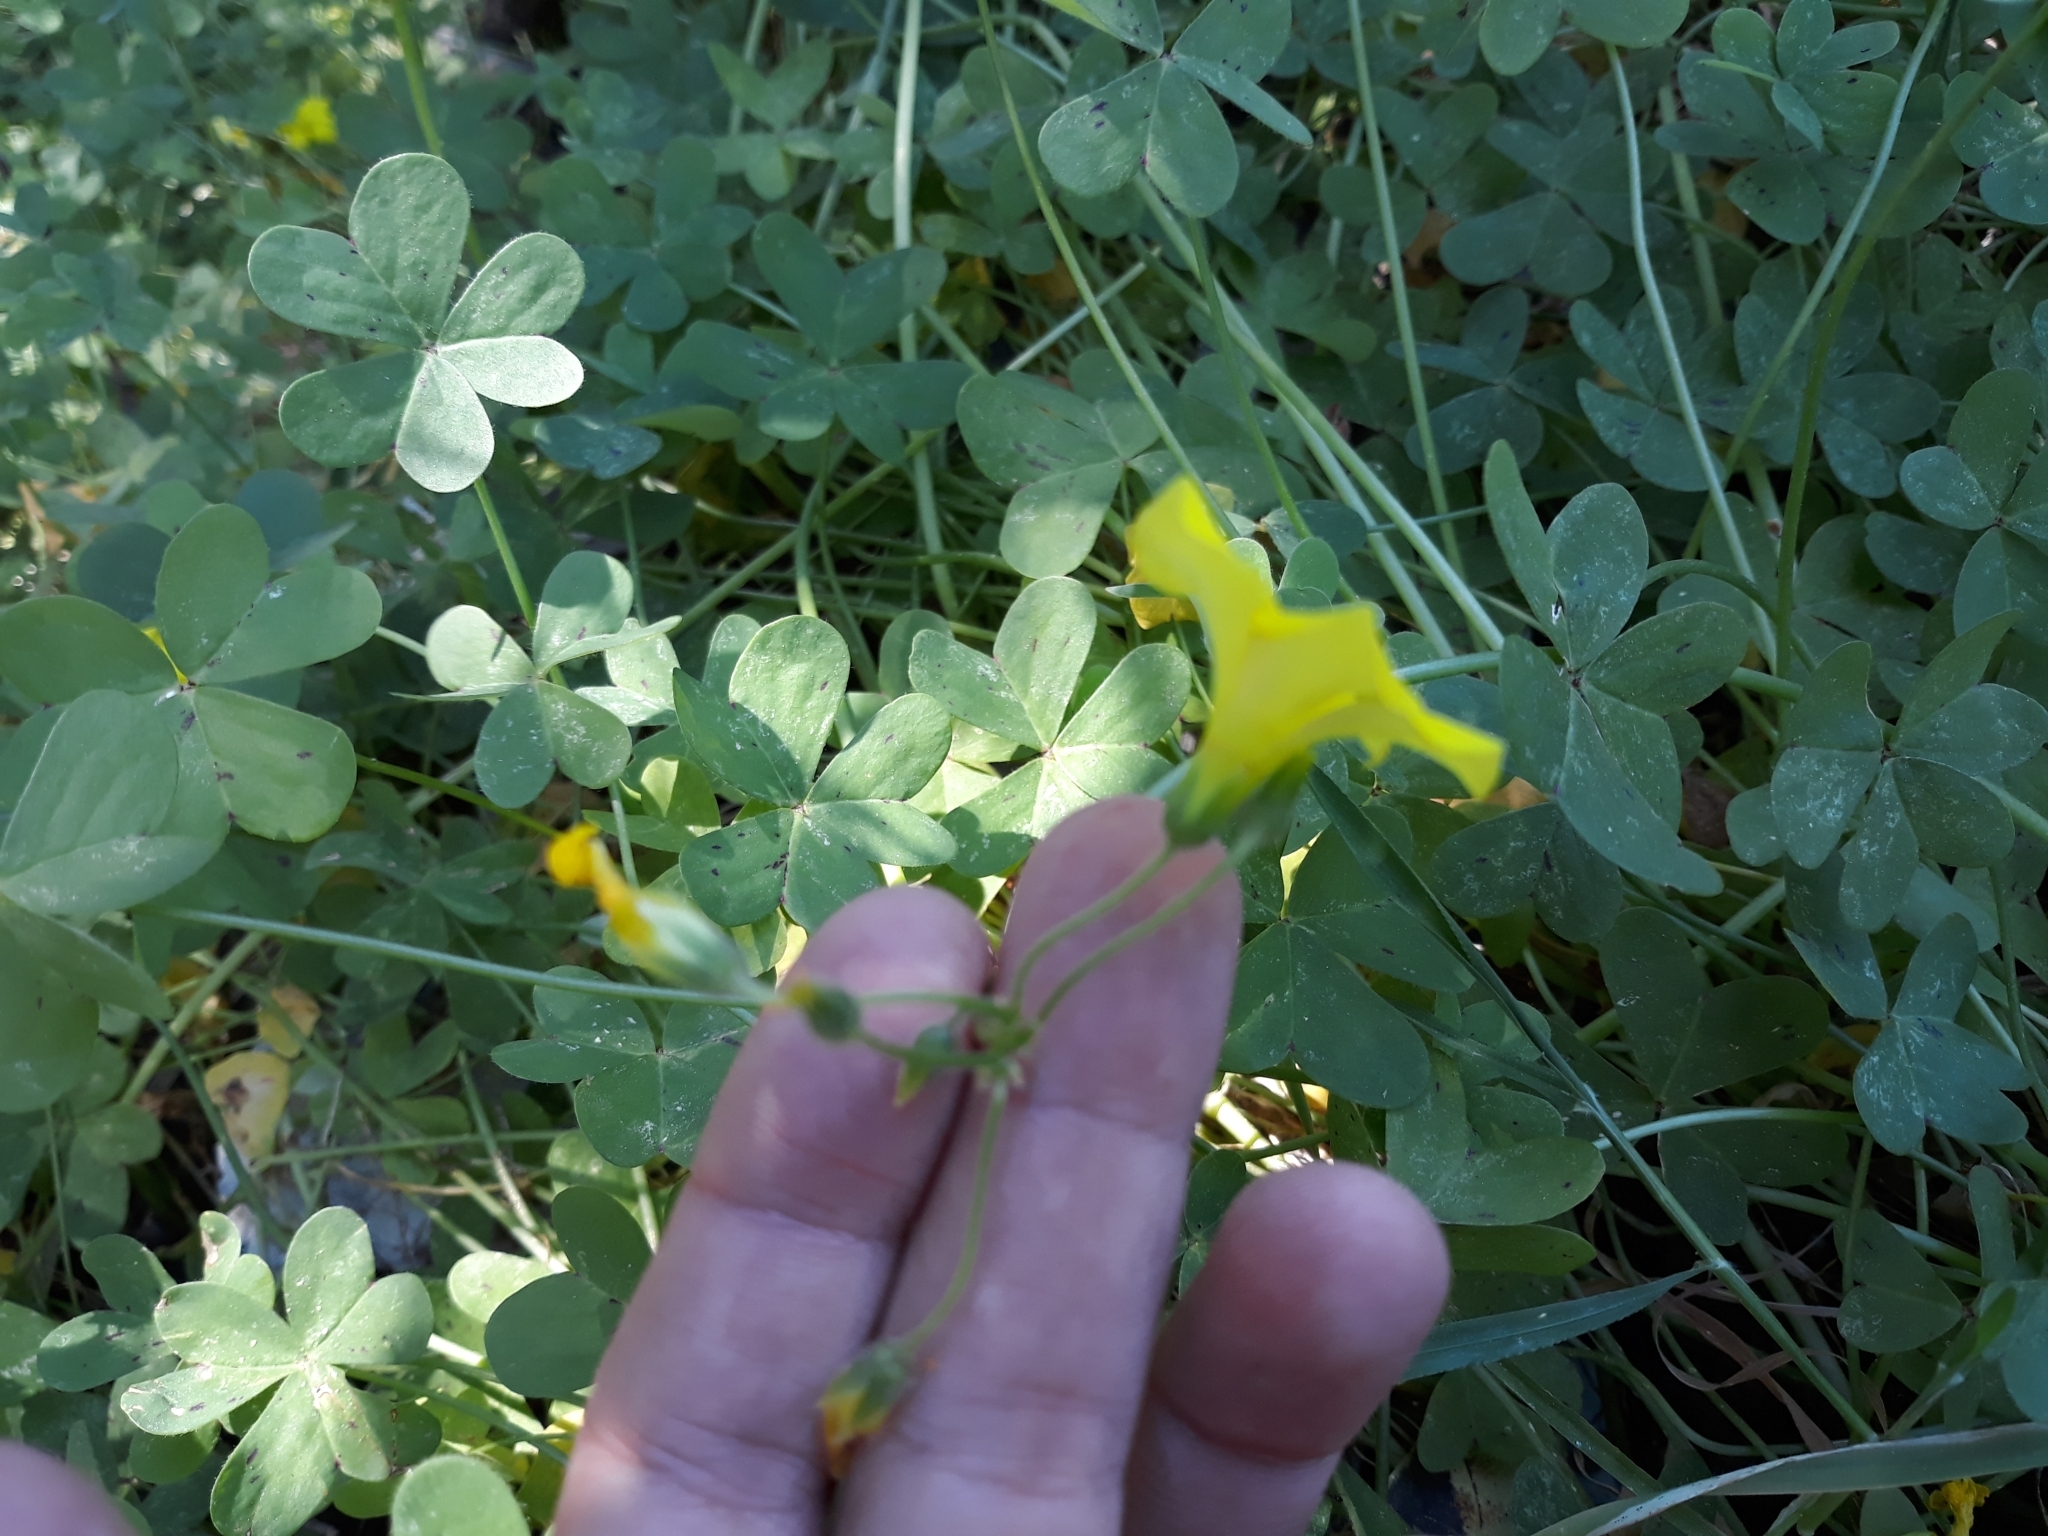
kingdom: Plantae
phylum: Tracheophyta
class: Magnoliopsida
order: Oxalidales
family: Oxalidaceae
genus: Oxalis
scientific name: Oxalis pes-caprae
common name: Bermuda-buttercup
